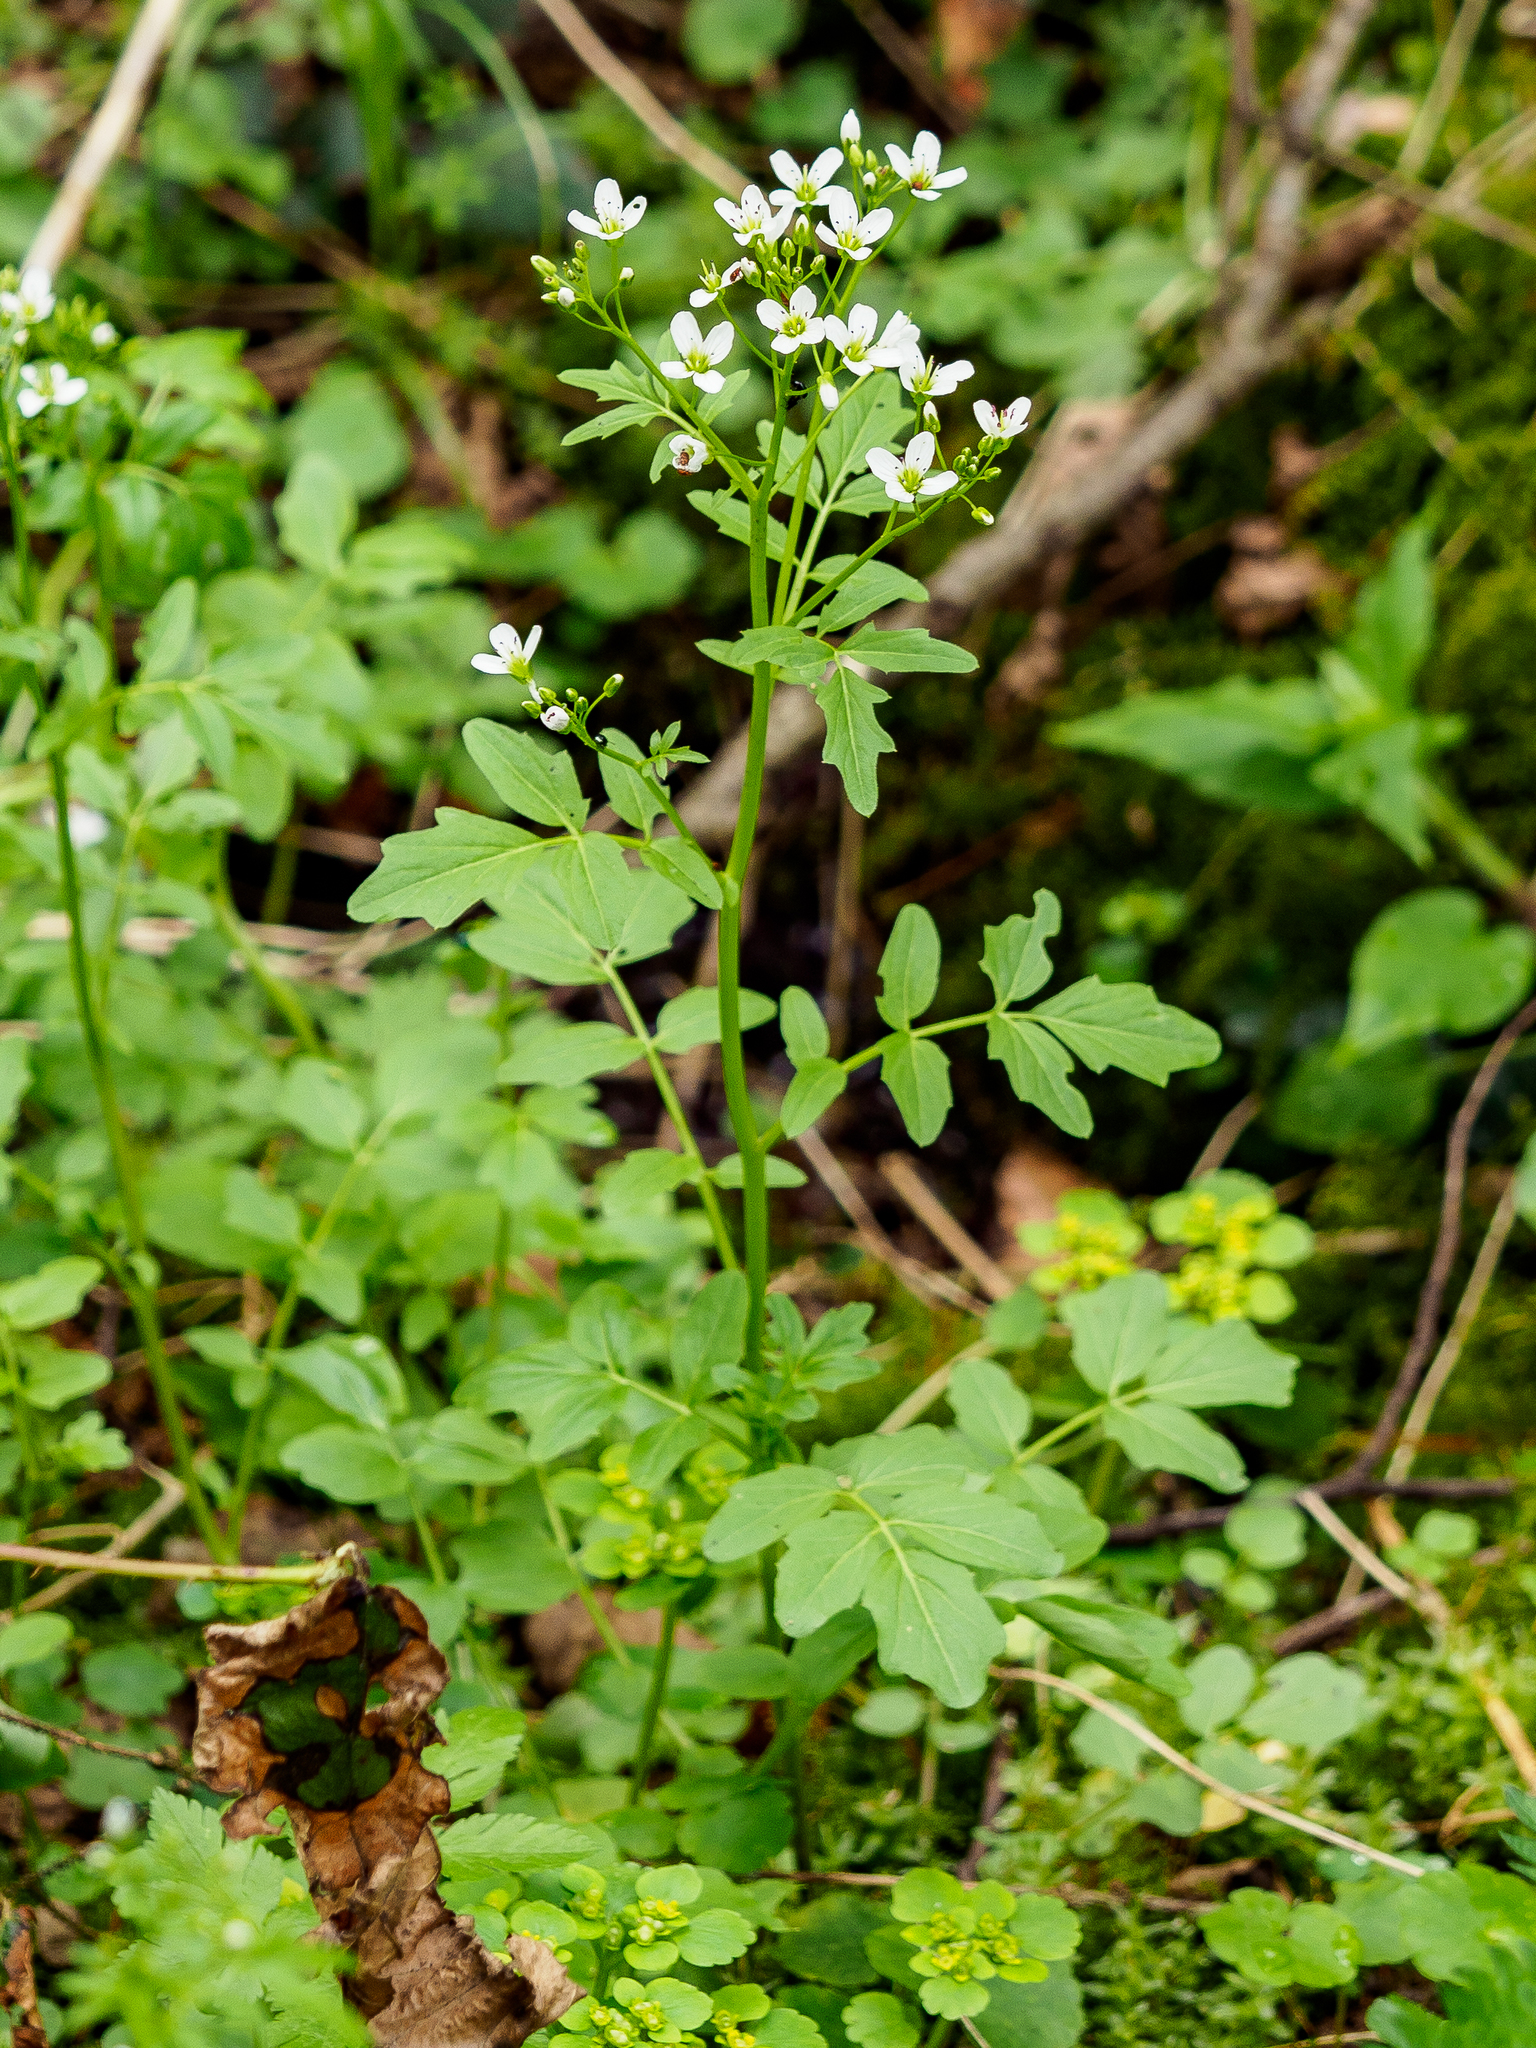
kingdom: Plantae
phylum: Tracheophyta
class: Magnoliopsida
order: Brassicales
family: Brassicaceae
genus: Cardamine
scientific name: Cardamine amara
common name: Large bitter-cress
